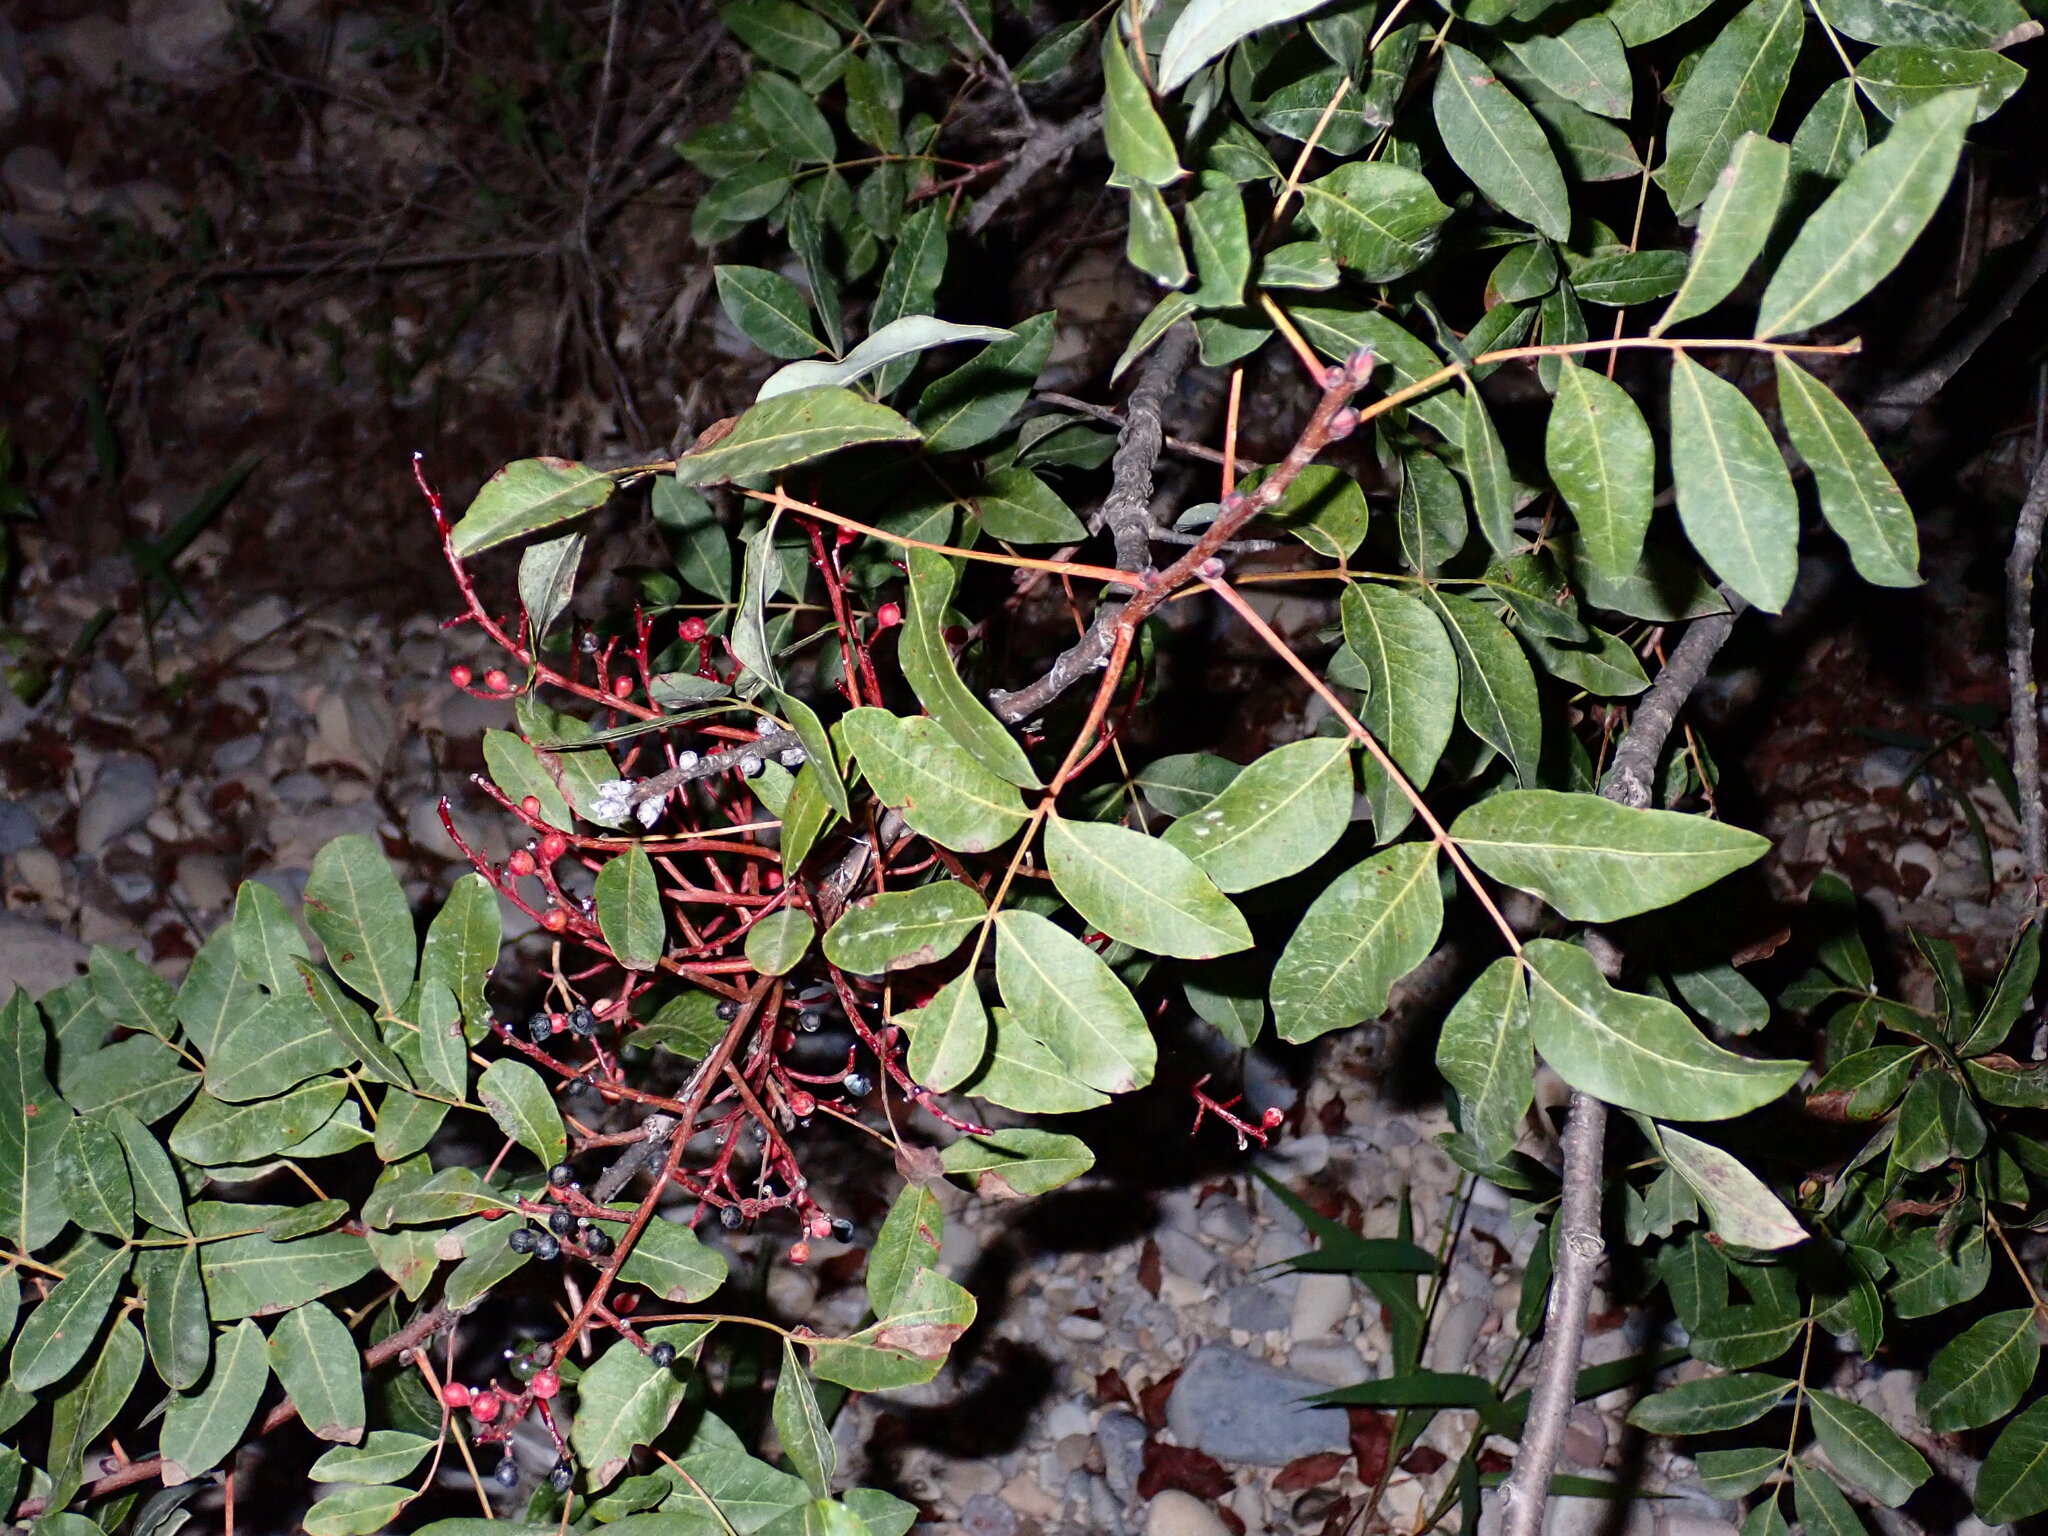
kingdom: Plantae
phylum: Tracheophyta
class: Magnoliopsida
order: Sapindales
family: Anacardiaceae
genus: Pistacia
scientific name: Pistacia terebinthus
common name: Terebinth
